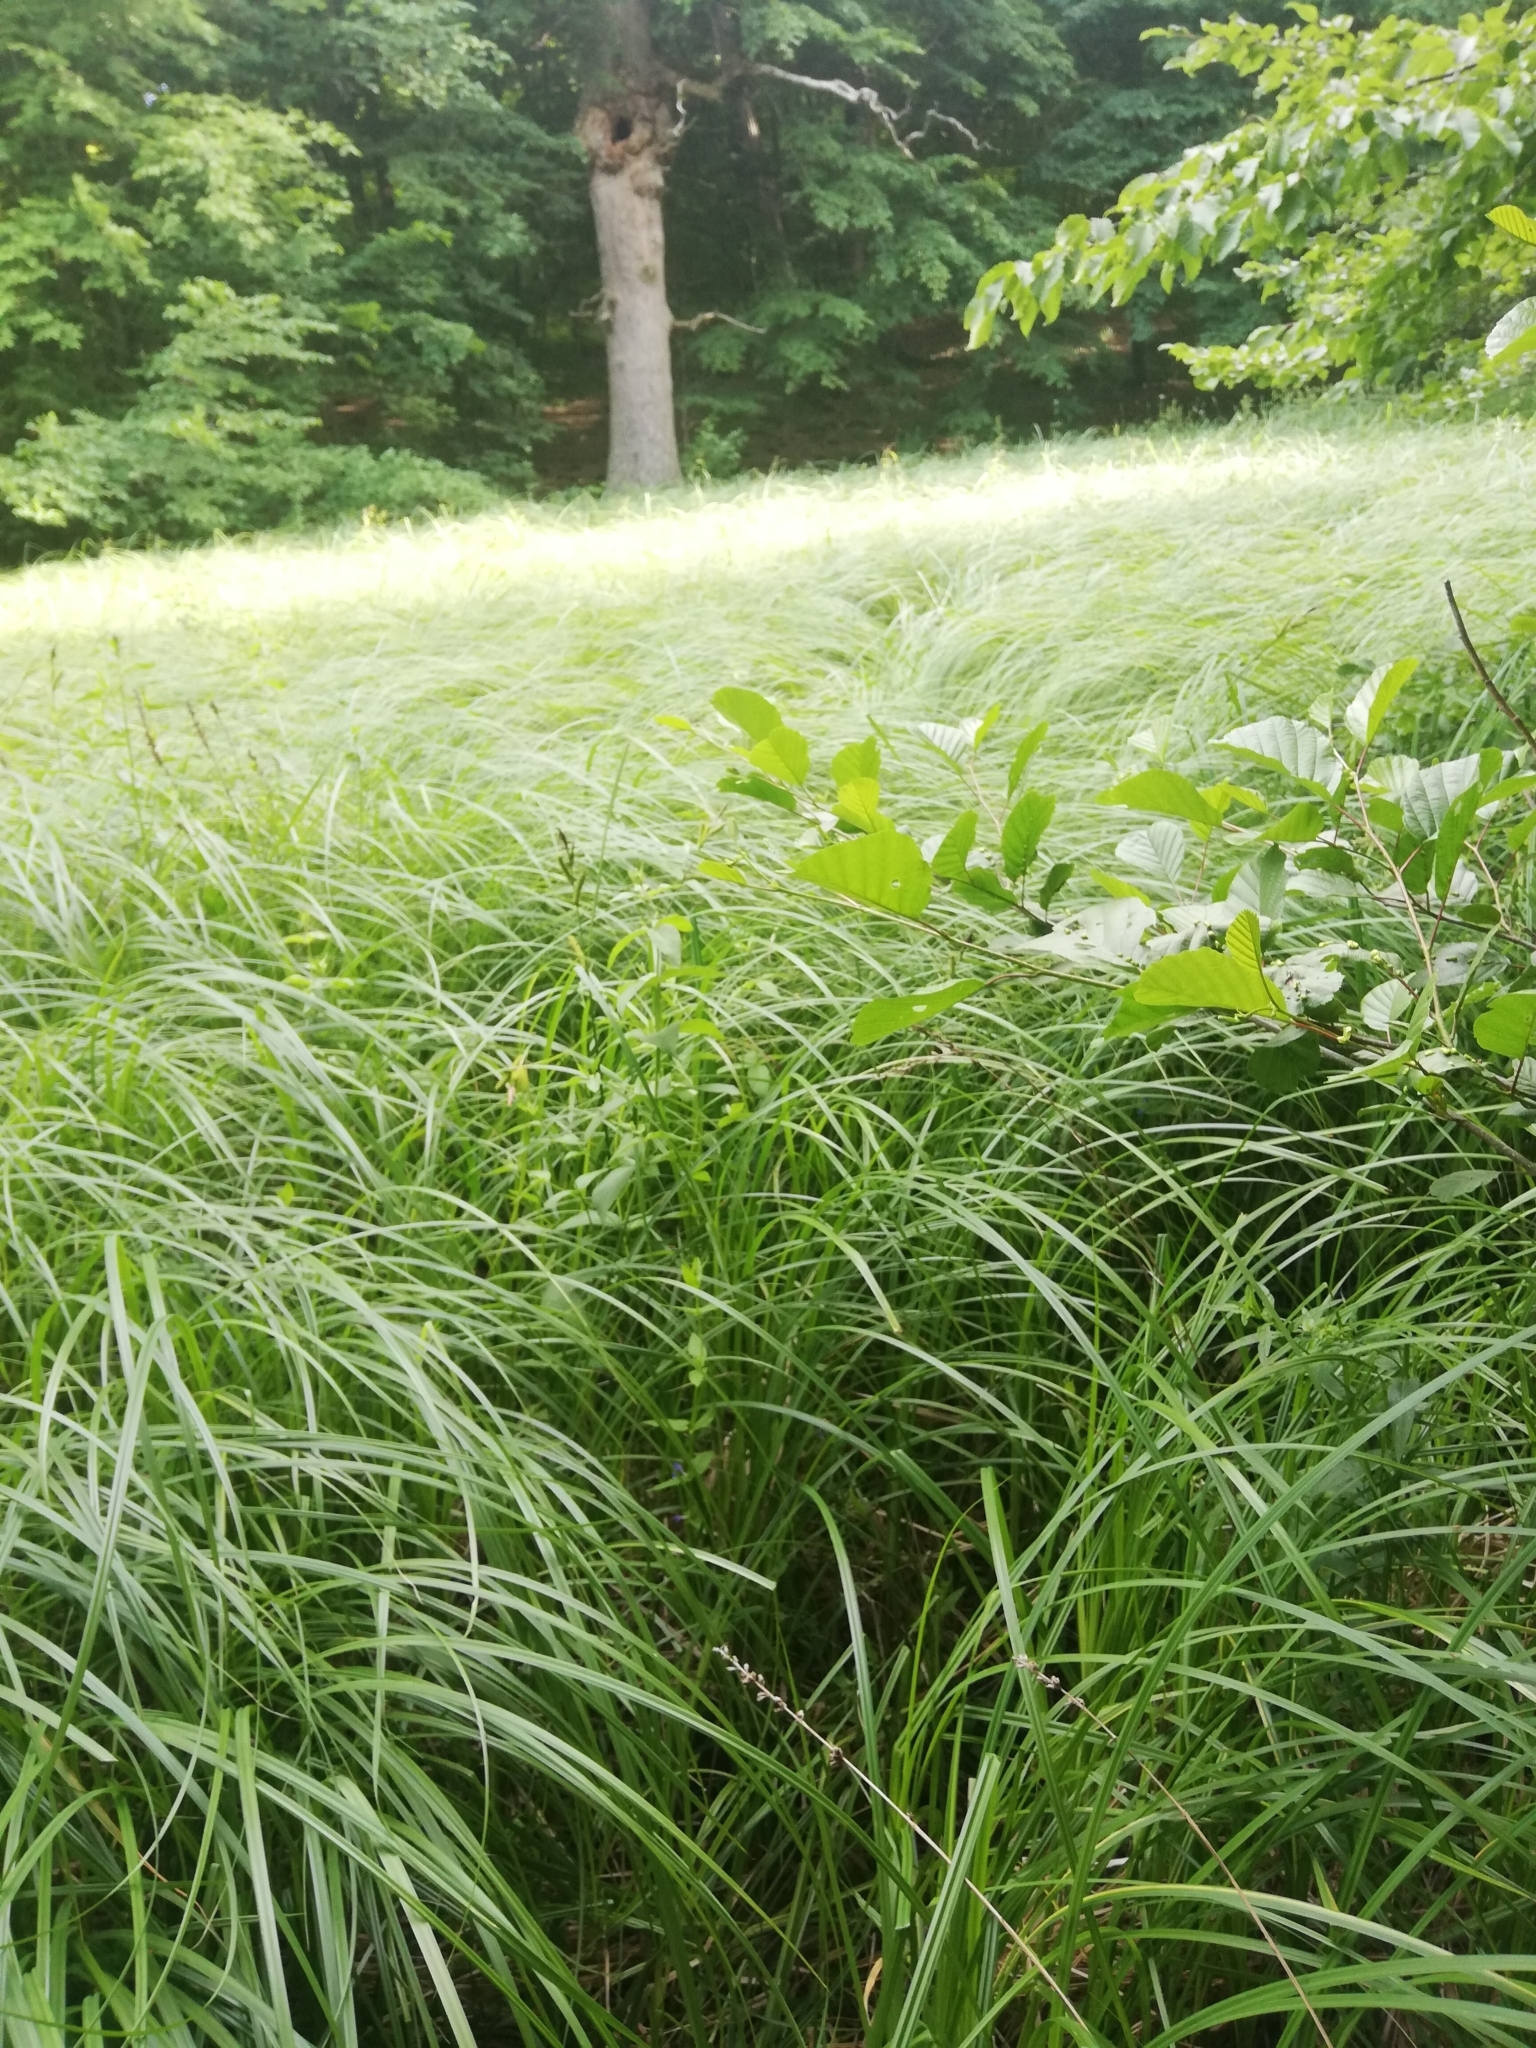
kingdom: Plantae
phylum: Tracheophyta
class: Magnoliopsida
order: Lamiales
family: Lamiaceae
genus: Scutellaria
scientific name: Scutellaria galericulata
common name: Skullcap
